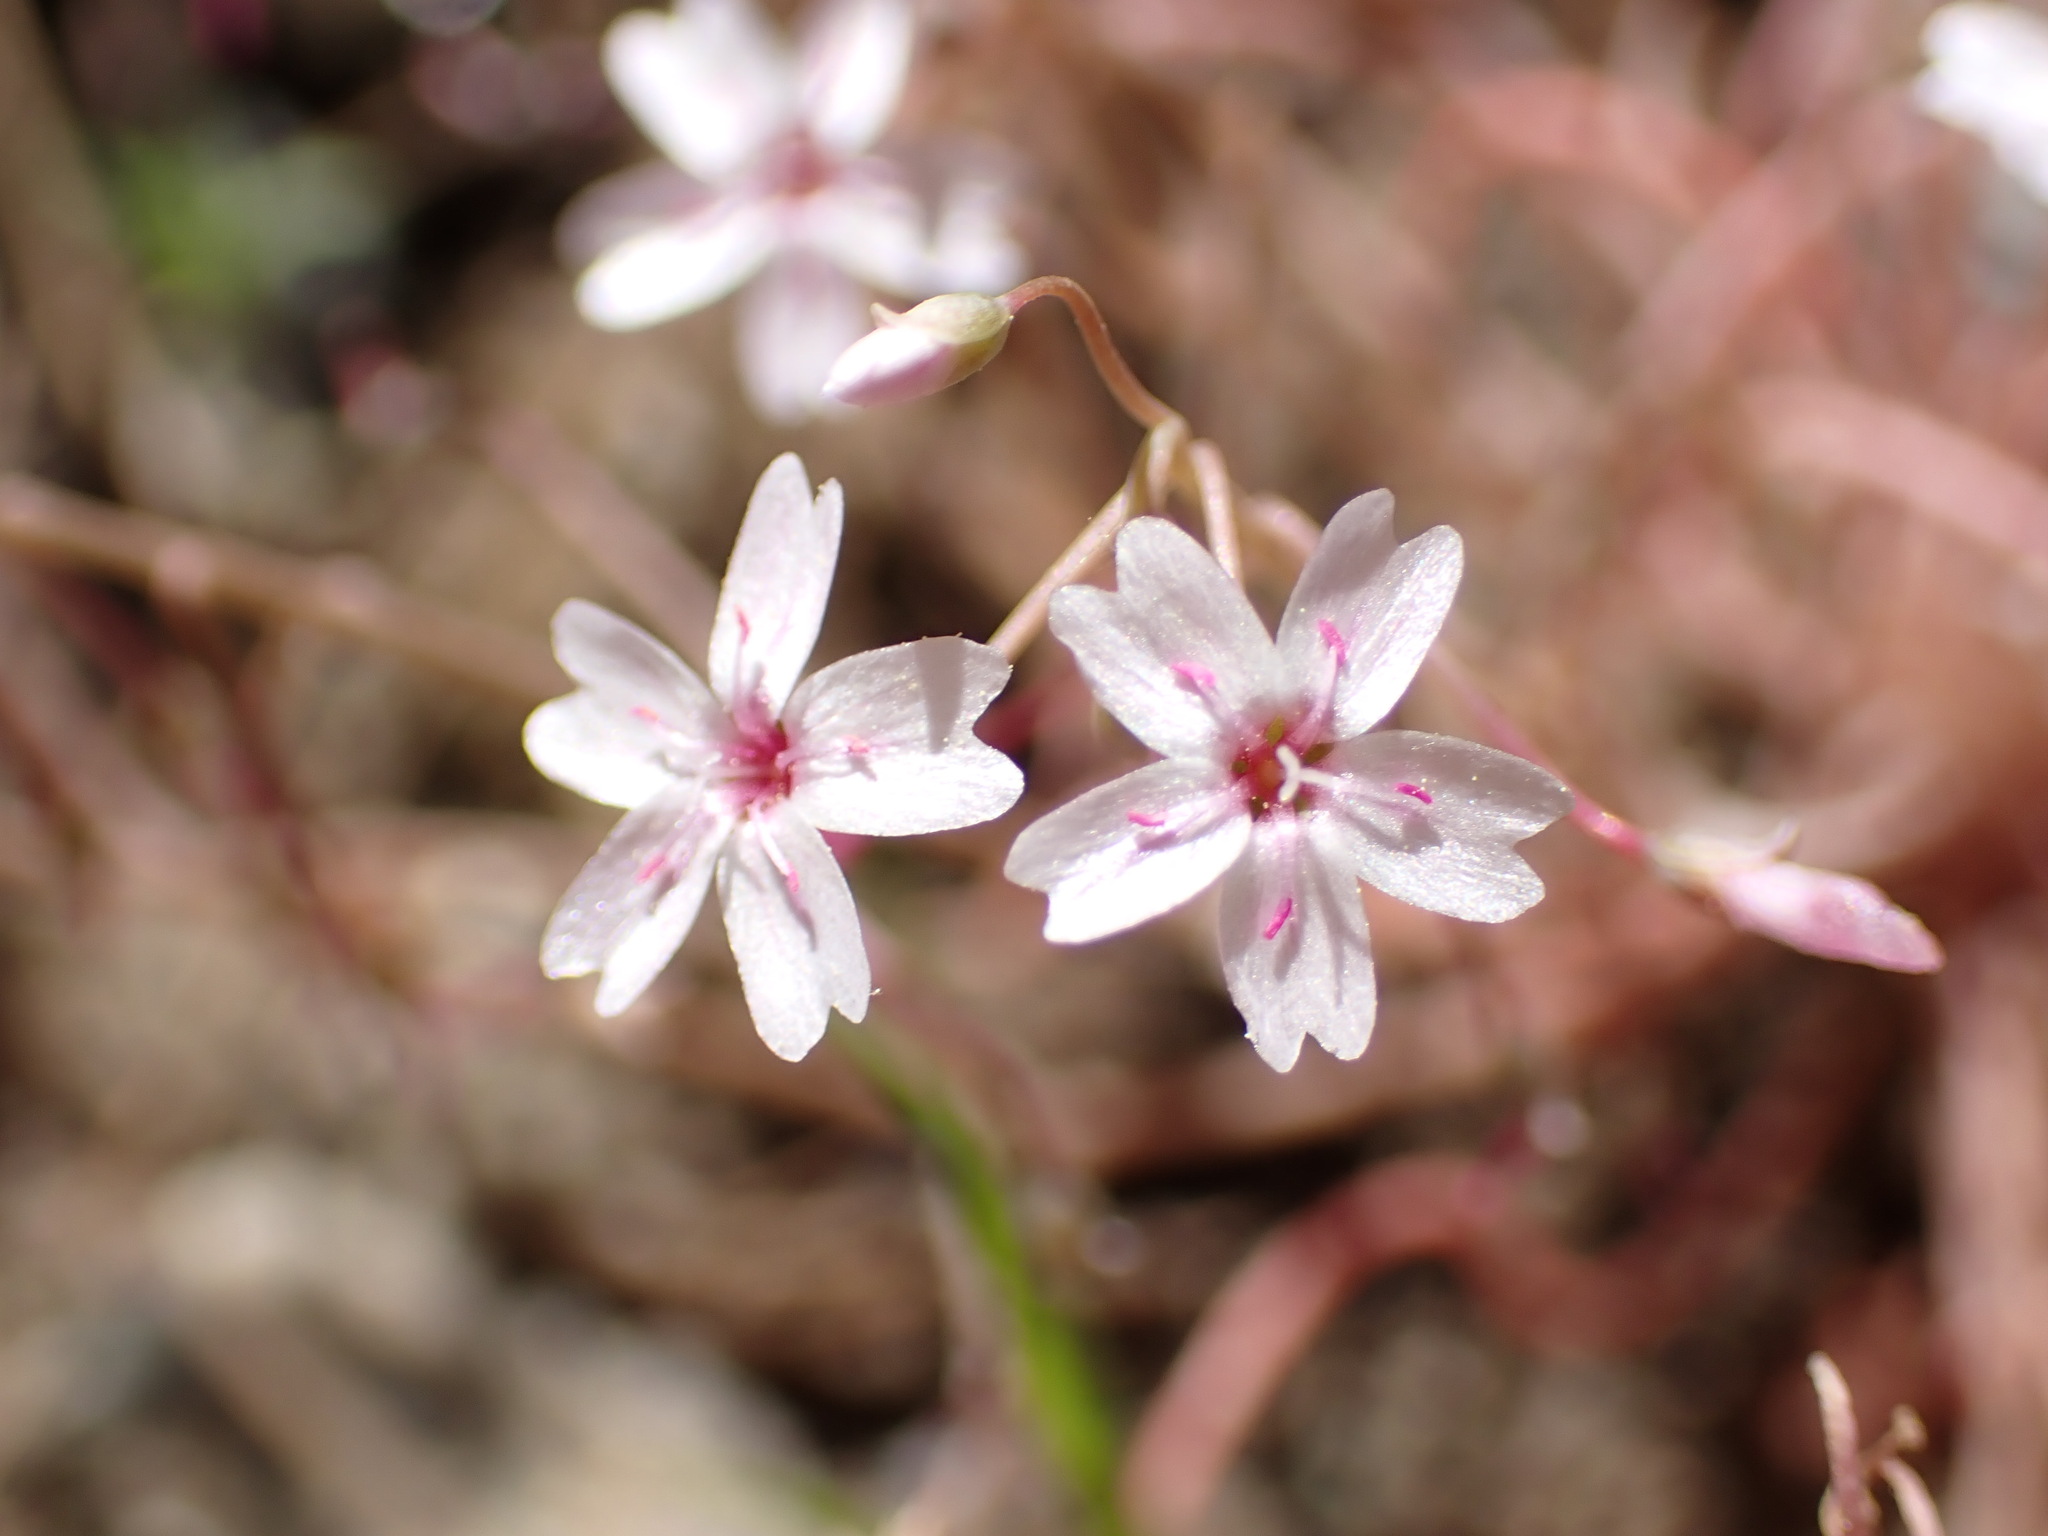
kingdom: Plantae
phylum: Tracheophyta
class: Magnoliopsida
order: Caryophyllales
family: Montiaceae
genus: Claytonia
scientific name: Claytonia gypsophiloides
